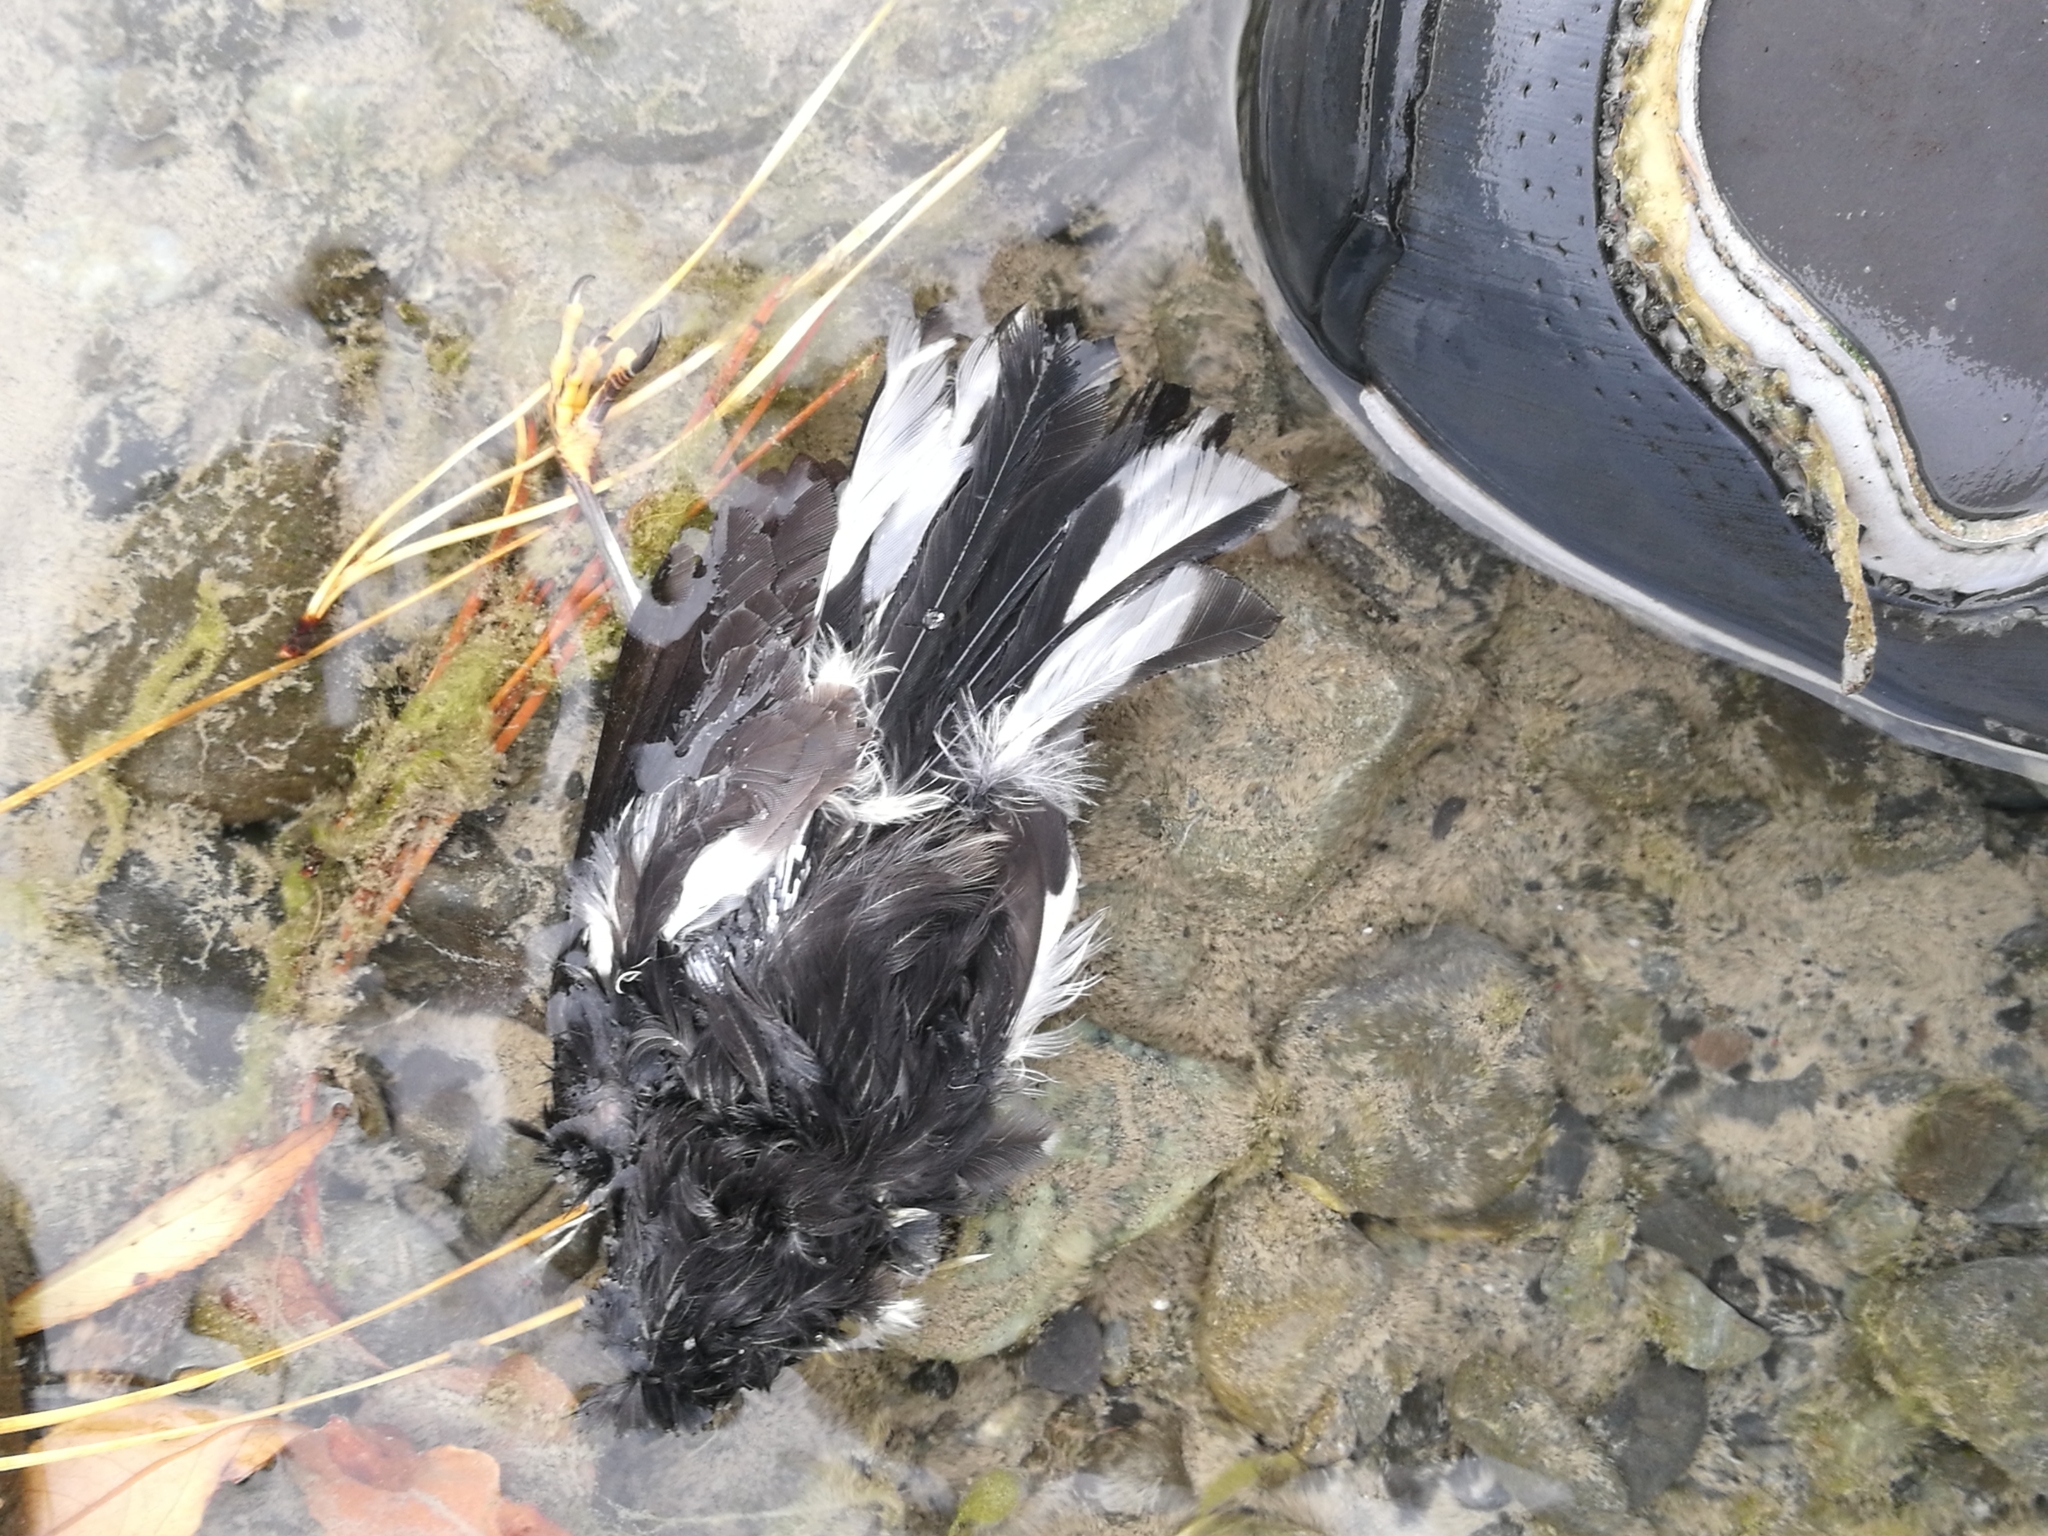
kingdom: Animalia
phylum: Chordata
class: Aves
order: Passeriformes
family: Petroicidae
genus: Petroica
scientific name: Petroica macrocephala
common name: Tomtit
